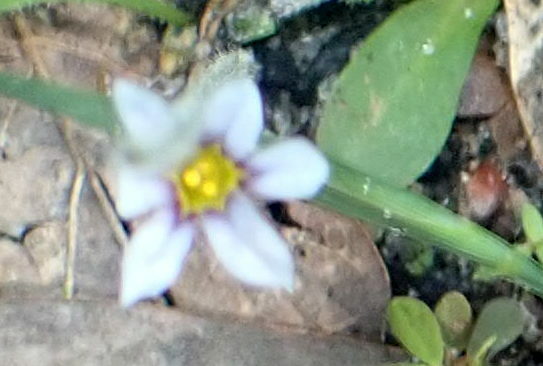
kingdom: Plantae
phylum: Tracheophyta
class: Liliopsida
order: Asparagales
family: Iridaceae
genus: Sisyrinchium
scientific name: Sisyrinchium micranthum
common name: Bermuda pigroot
